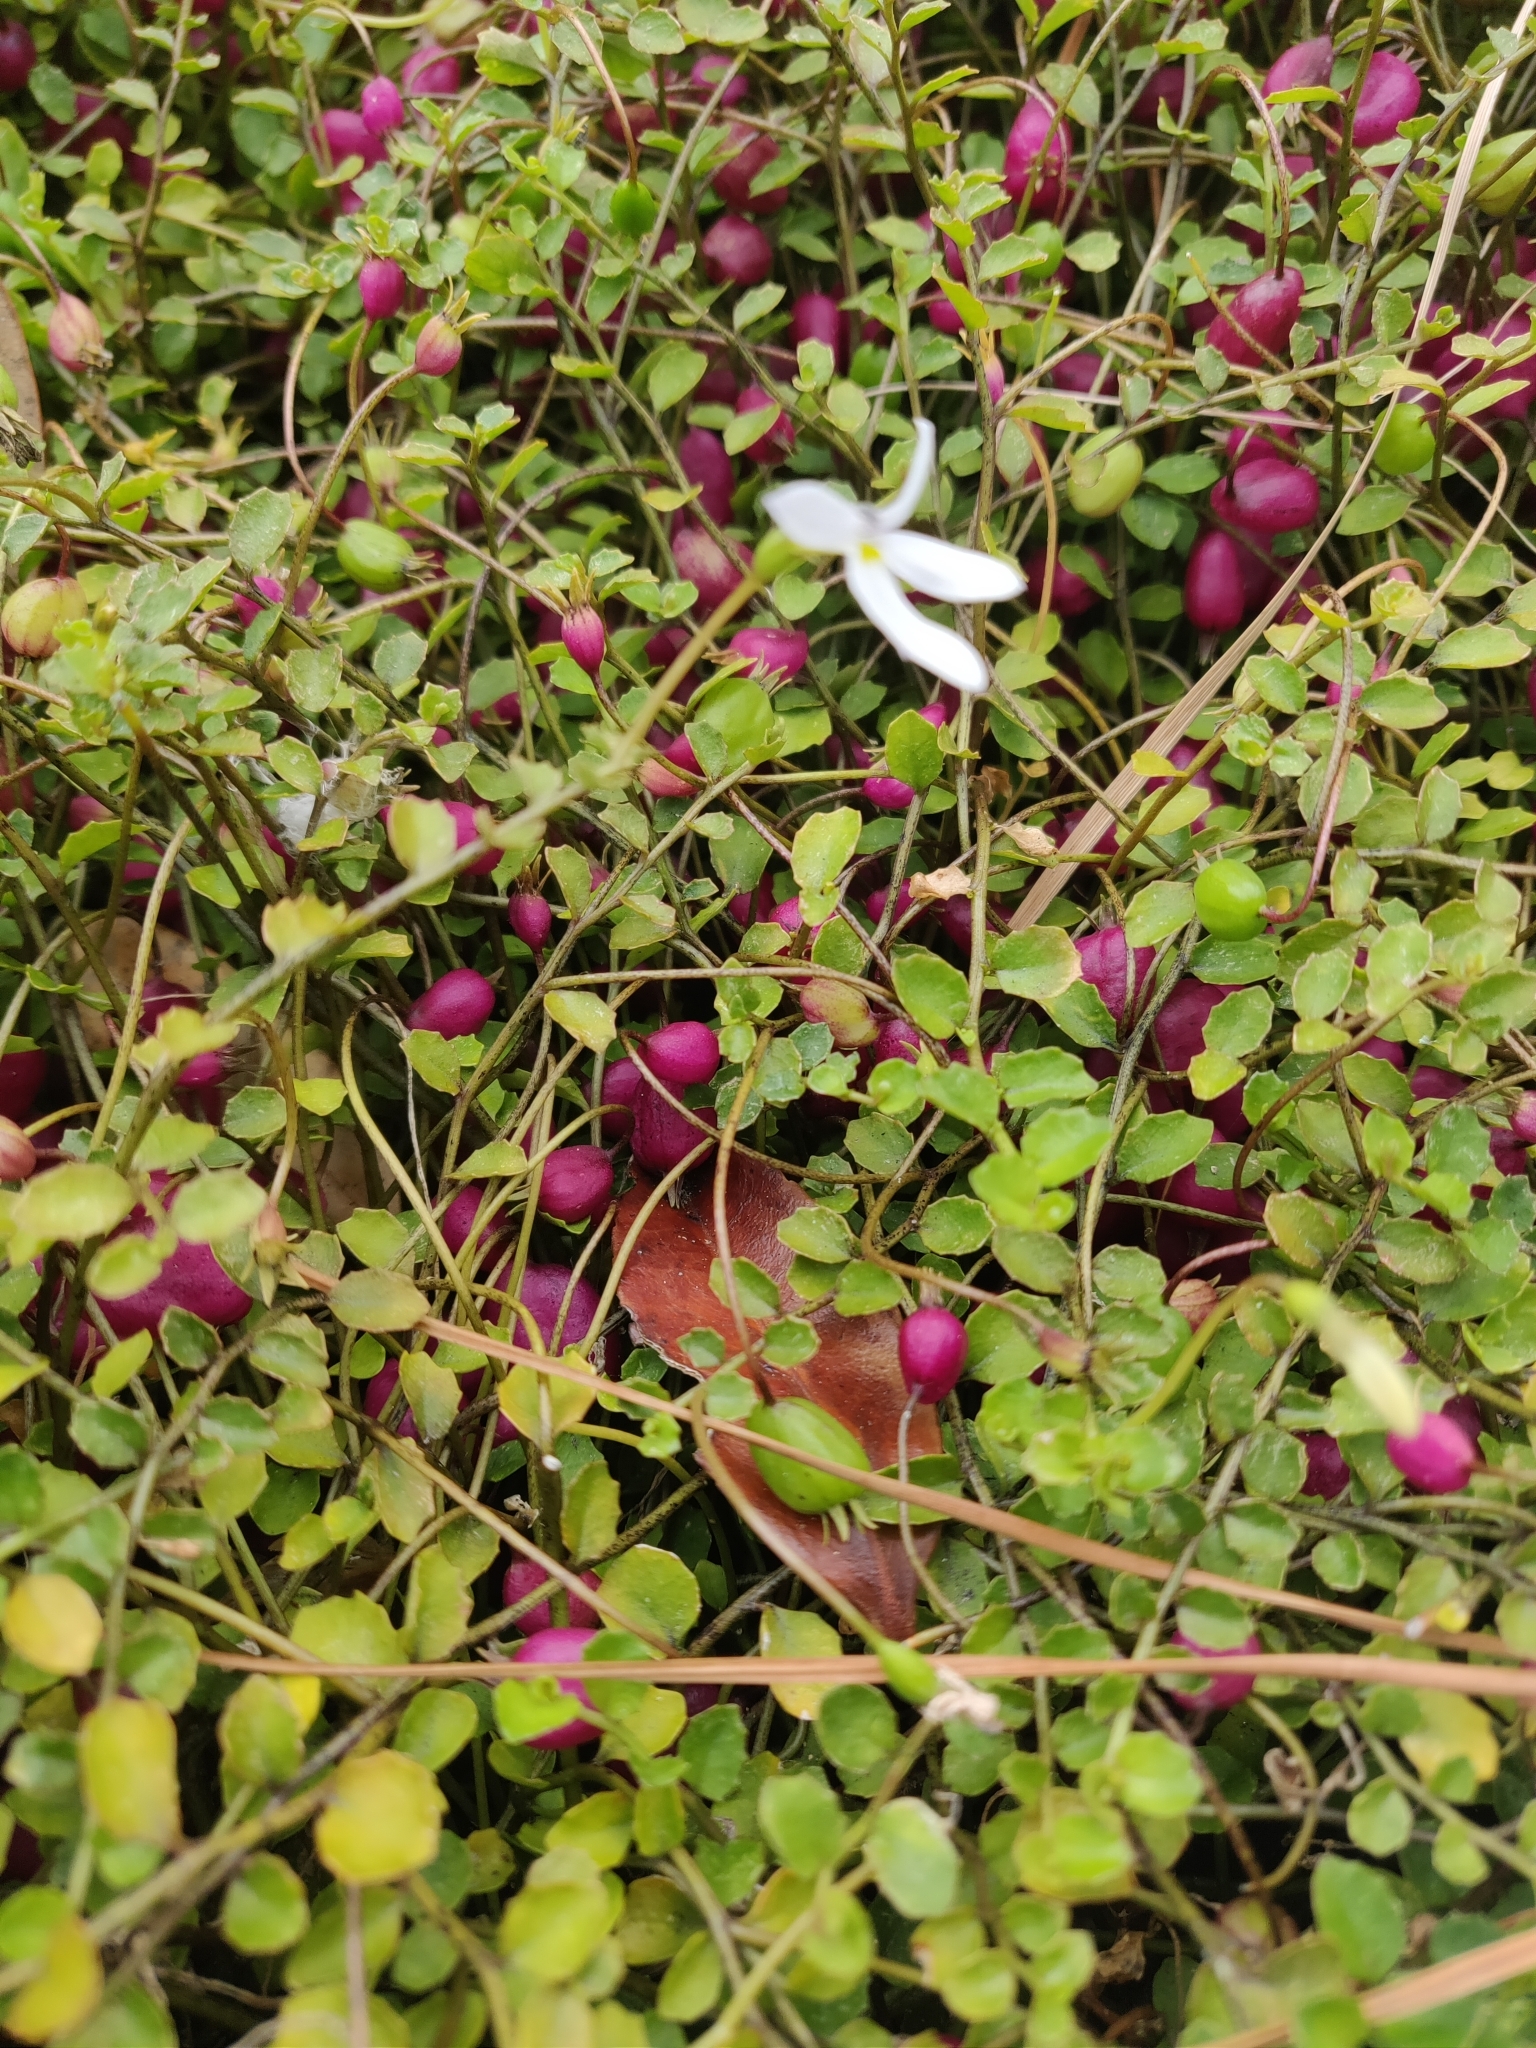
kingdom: Plantae
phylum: Tracheophyta
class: Magnoliopsida
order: Asterales
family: Campanulaceae
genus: Lobelia
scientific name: Lobelia angulata
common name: Lawn lobelia
